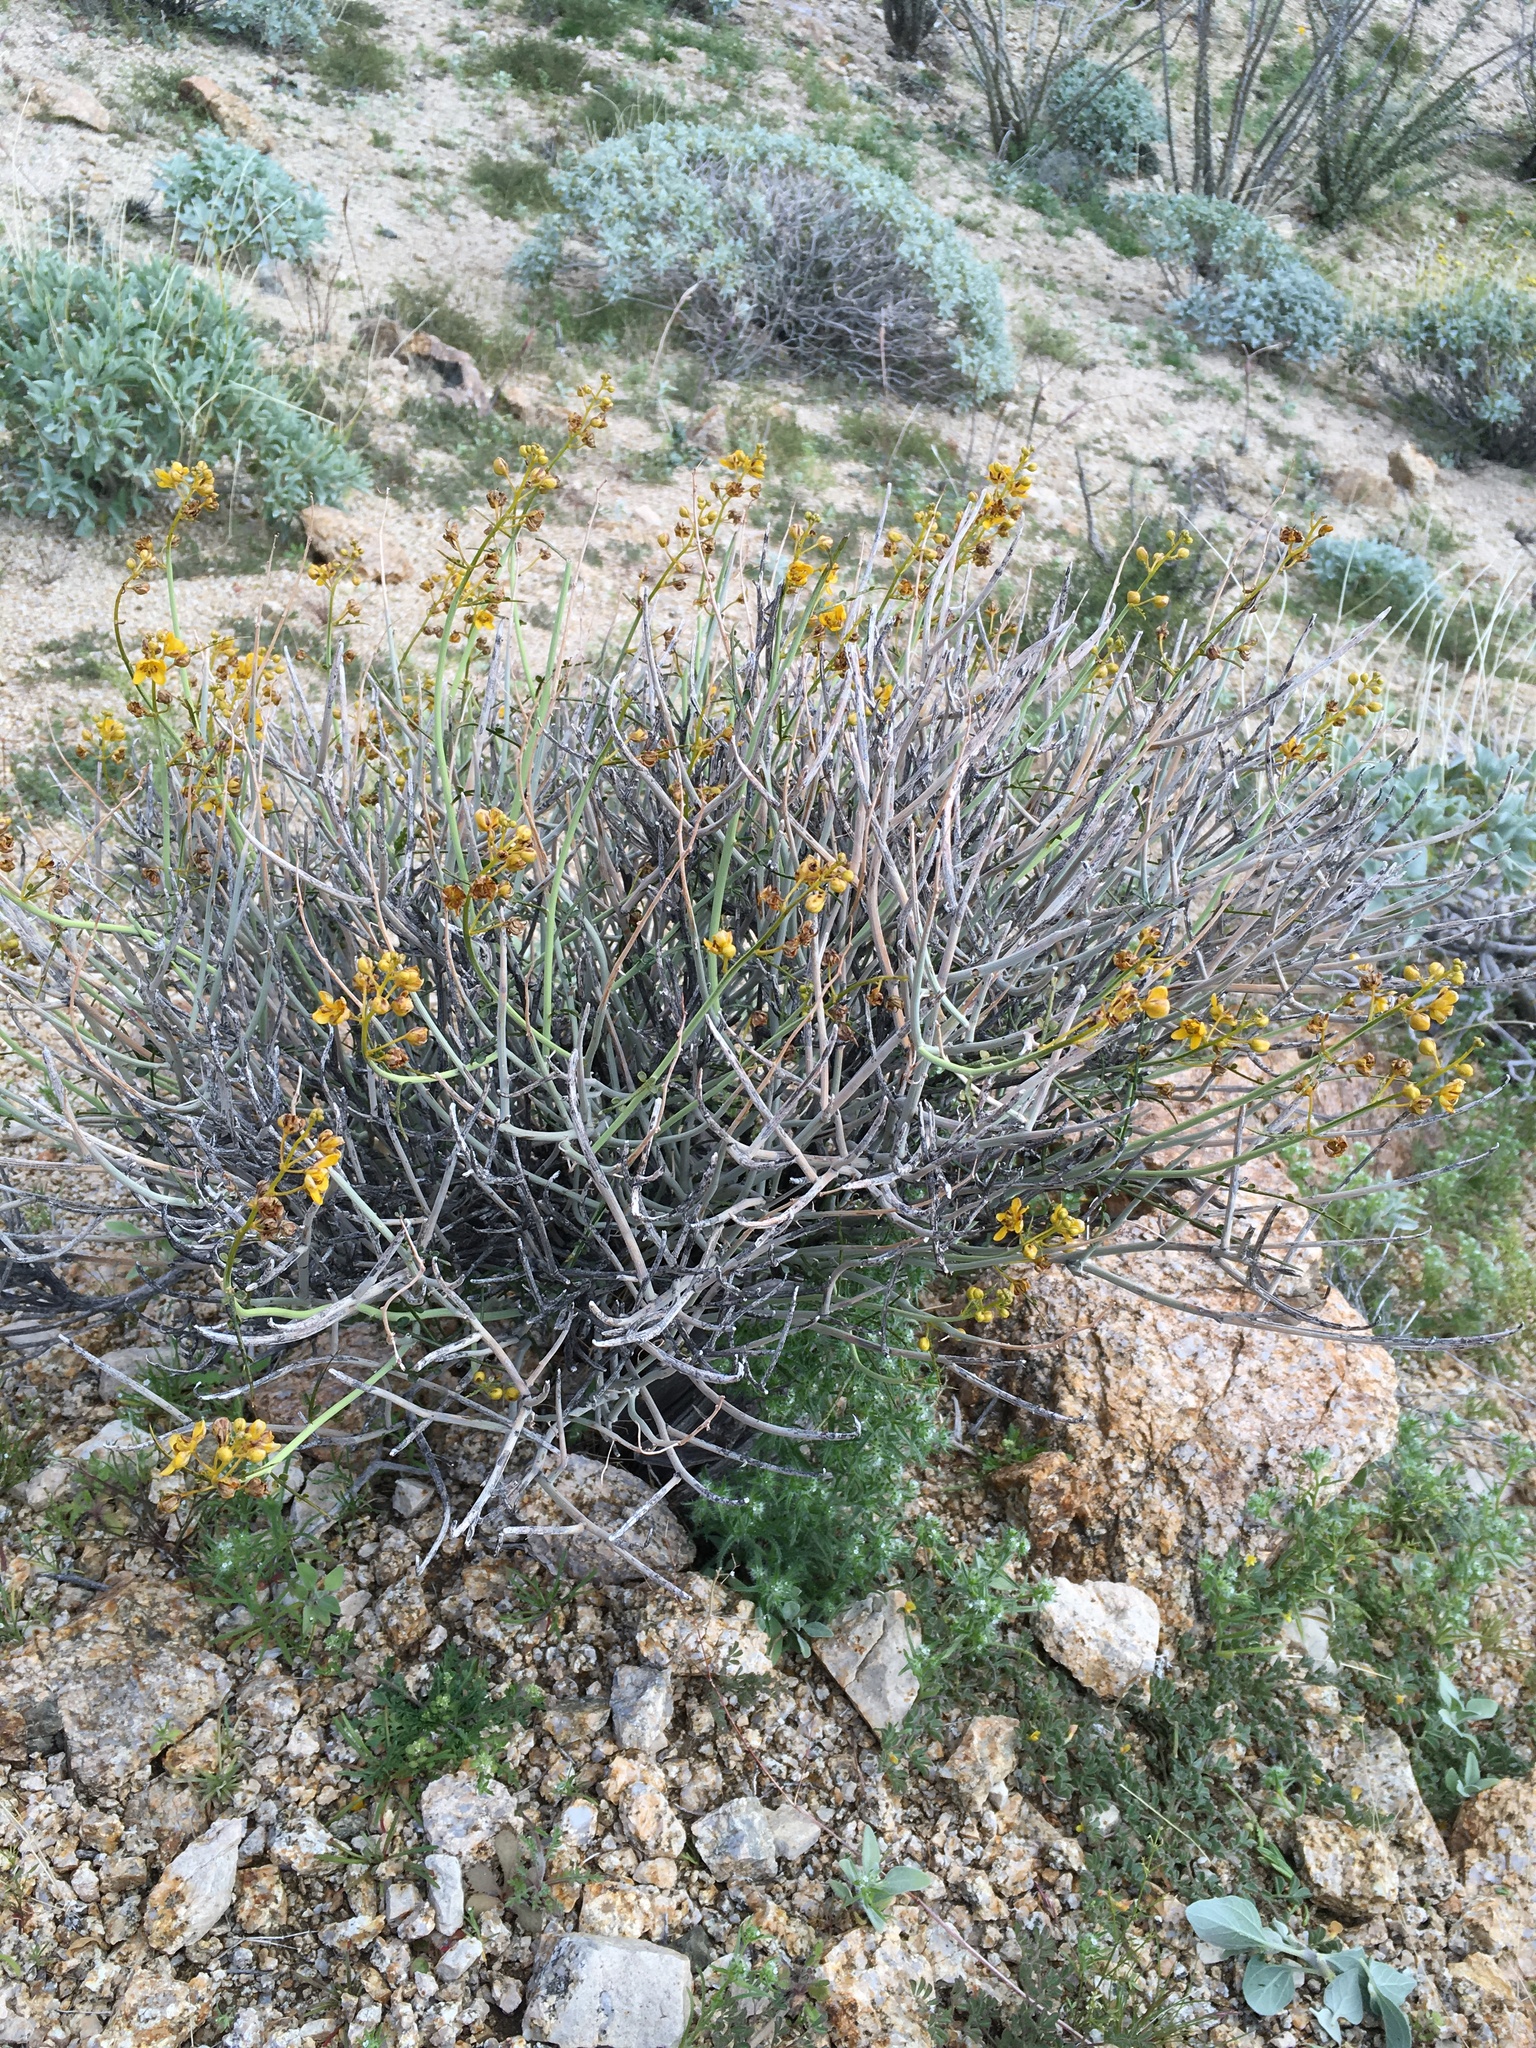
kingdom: Plantae
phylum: Tracheophyta
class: Magnoliopsida
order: Fabales
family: Fabaceae
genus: Senna
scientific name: Senna armata
